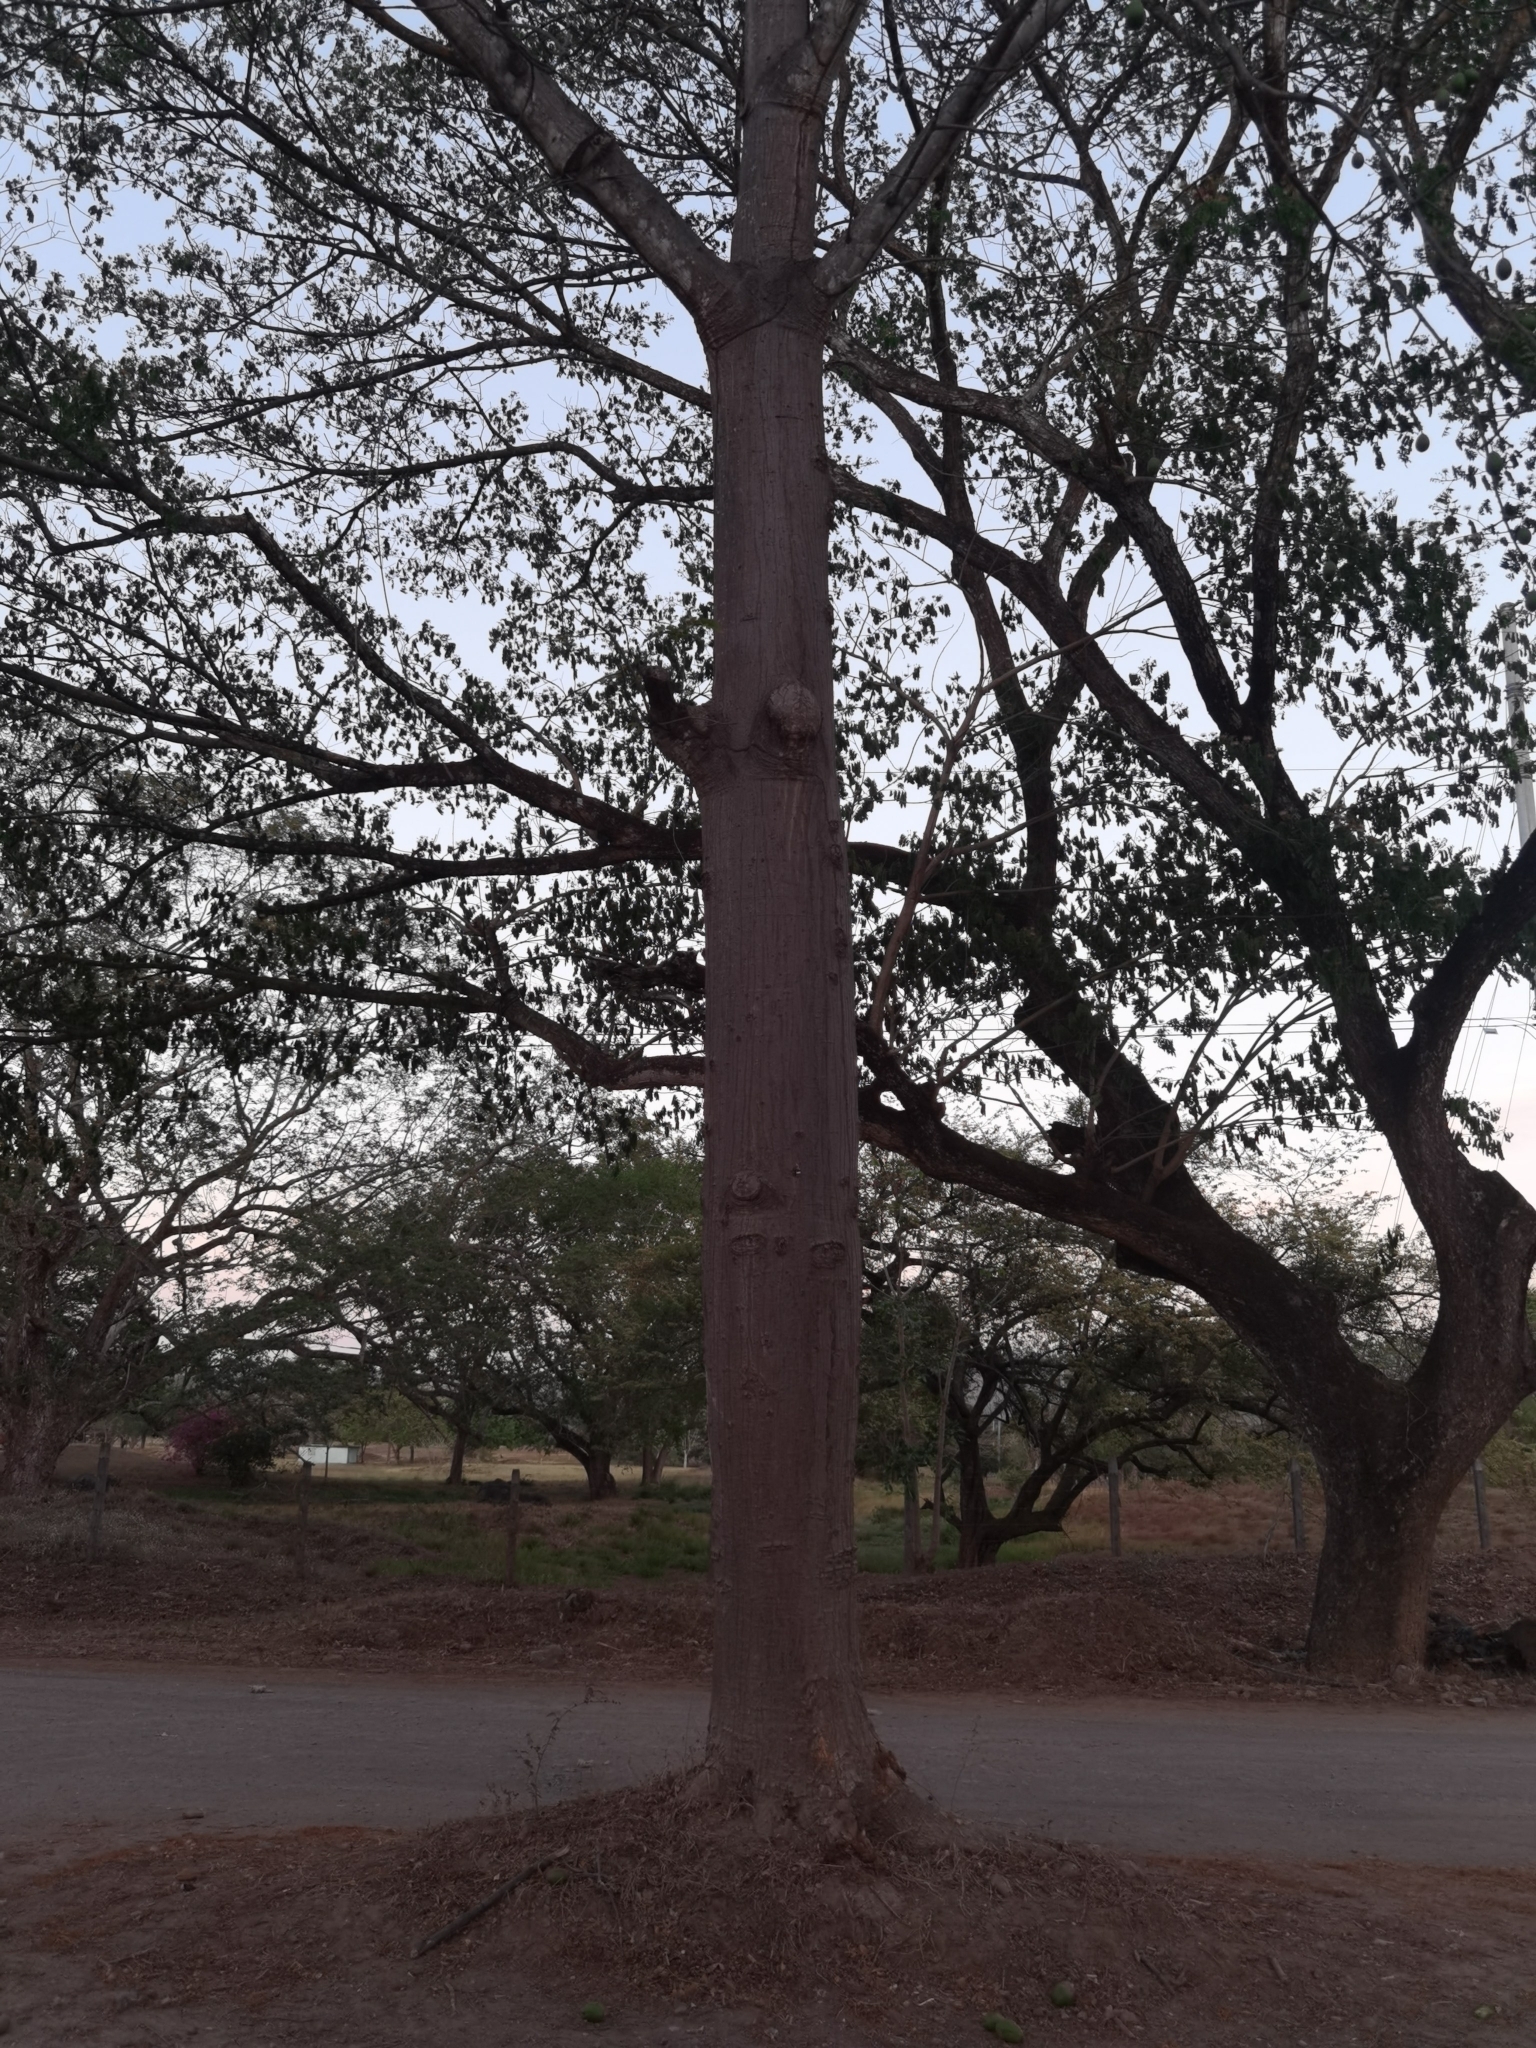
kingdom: Plantae
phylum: Tracheophyta
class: Magnoliopsida
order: Malvales
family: Malvaceae
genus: Ceiba
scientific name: Ceiba pentandra
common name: Kapok
